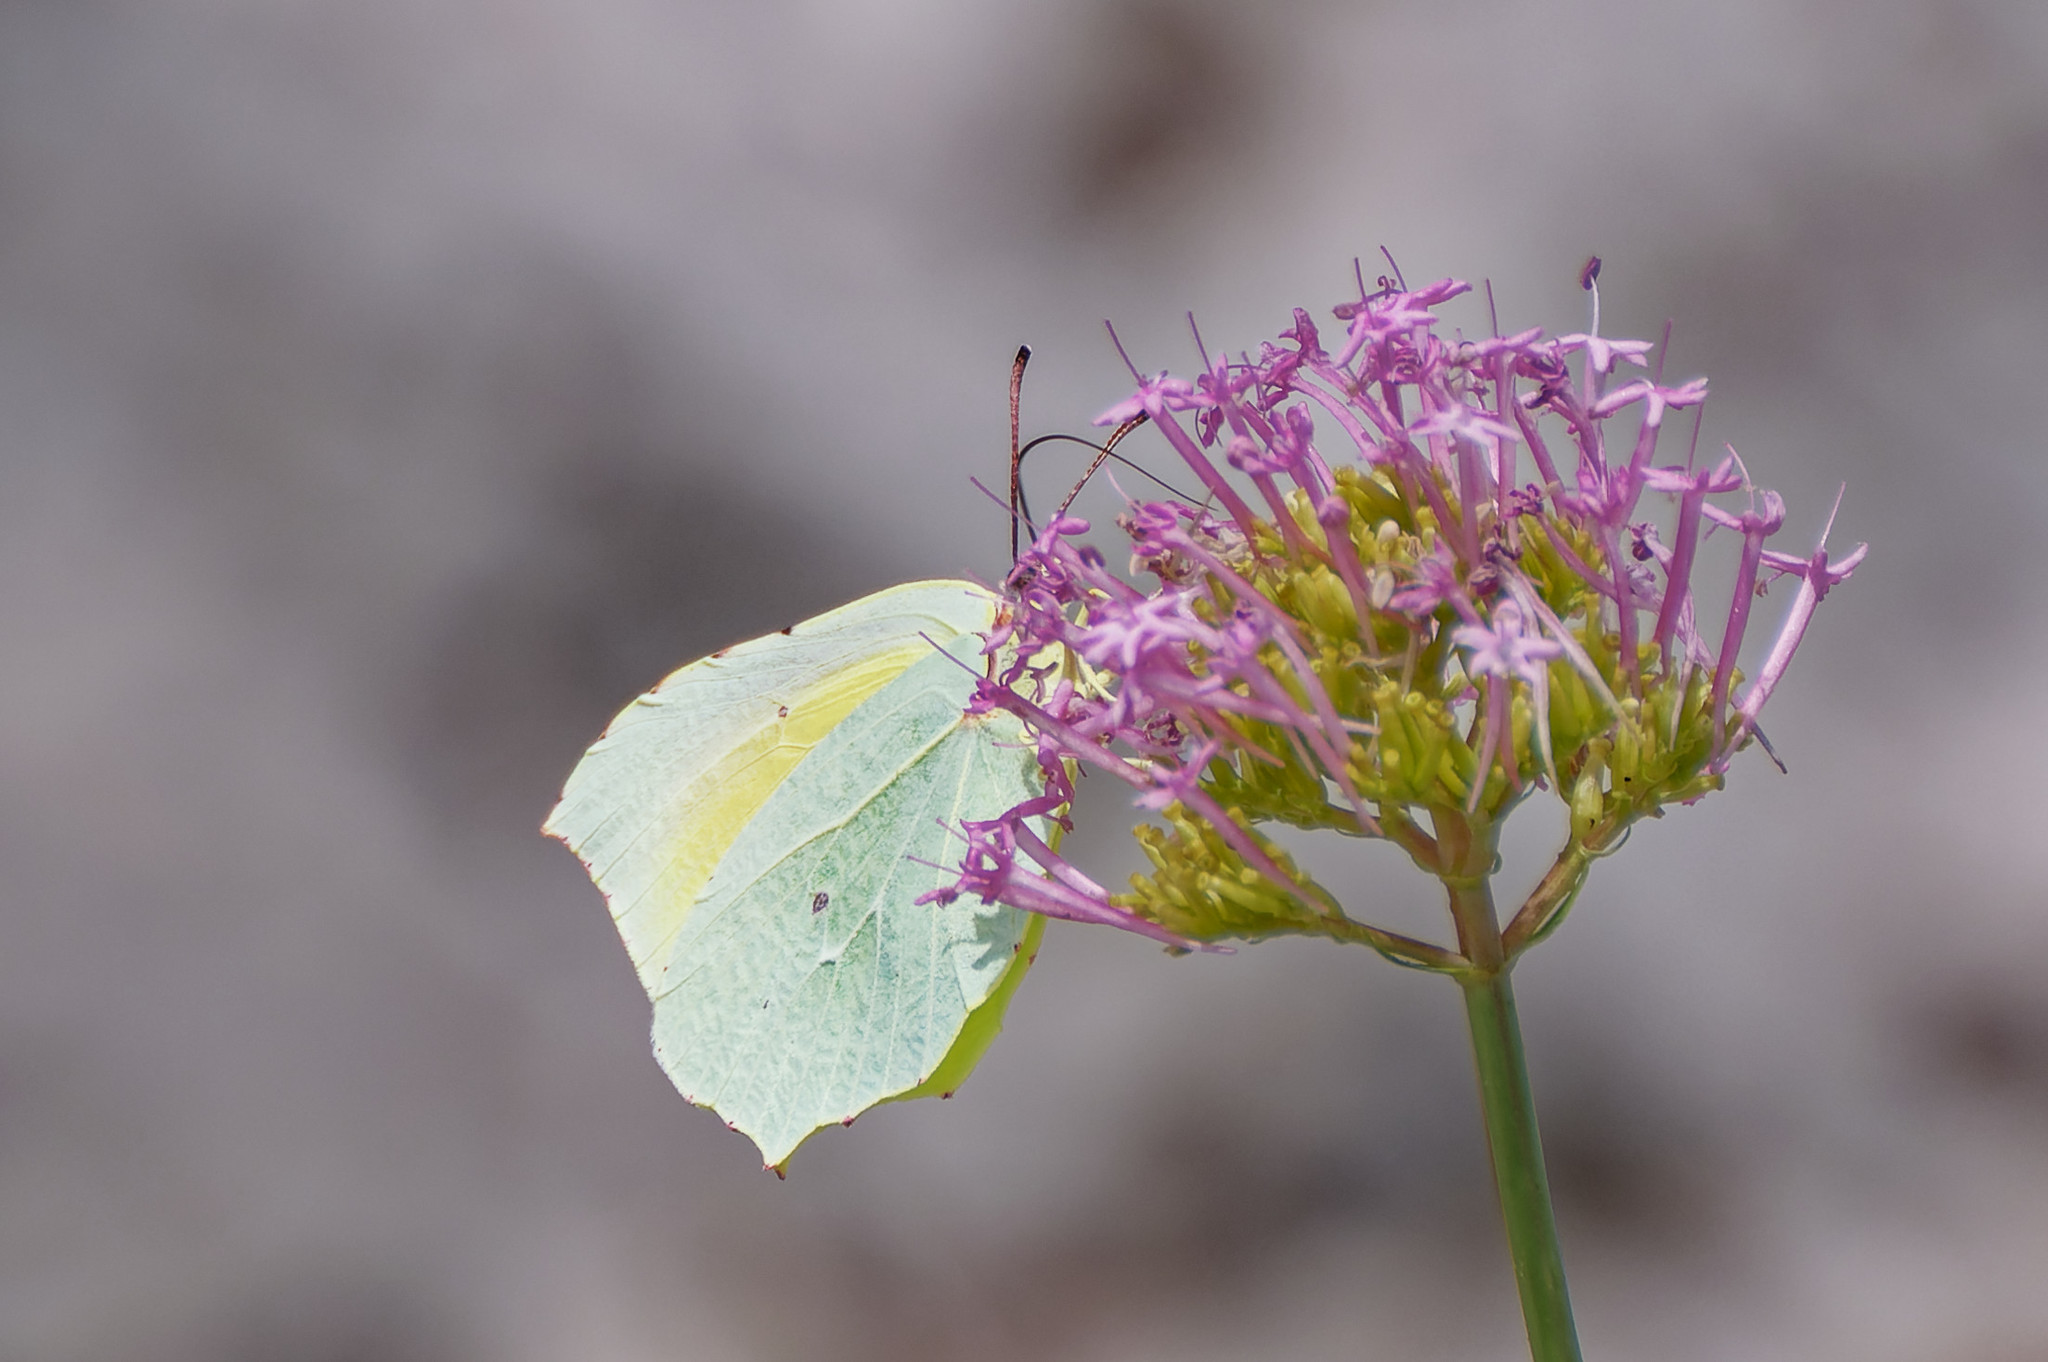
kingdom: Animalia
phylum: Arthropoda
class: Insecta
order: Lepidoptera
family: Pieridae
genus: Gonepteryx
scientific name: Gonepteryx cleopatra
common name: Cleopatra
